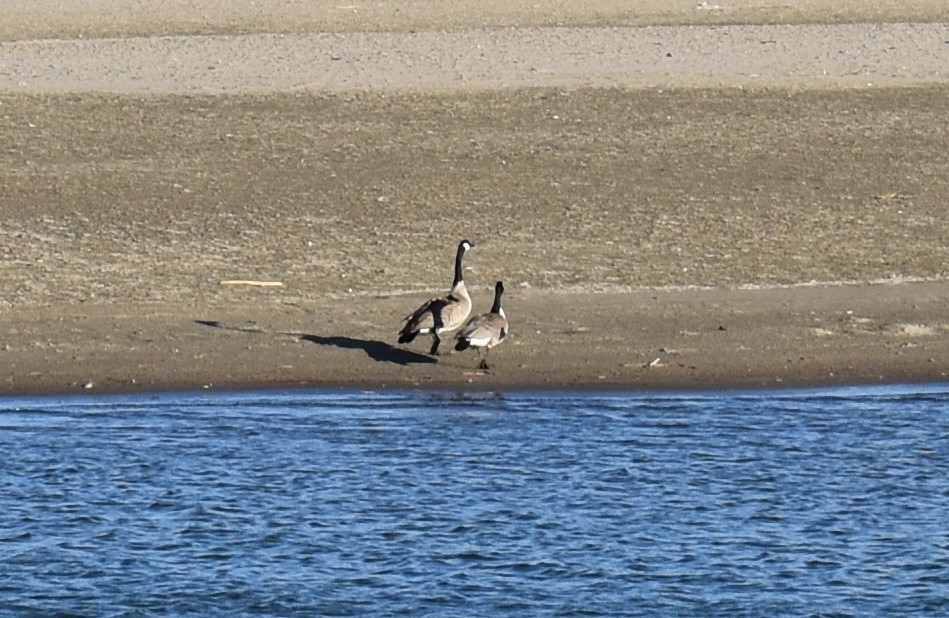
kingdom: Animalia
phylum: Chordata
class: Aves
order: Anseriformes
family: Anatidae
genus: Branta
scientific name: Branta canadensis
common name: Canada goose
